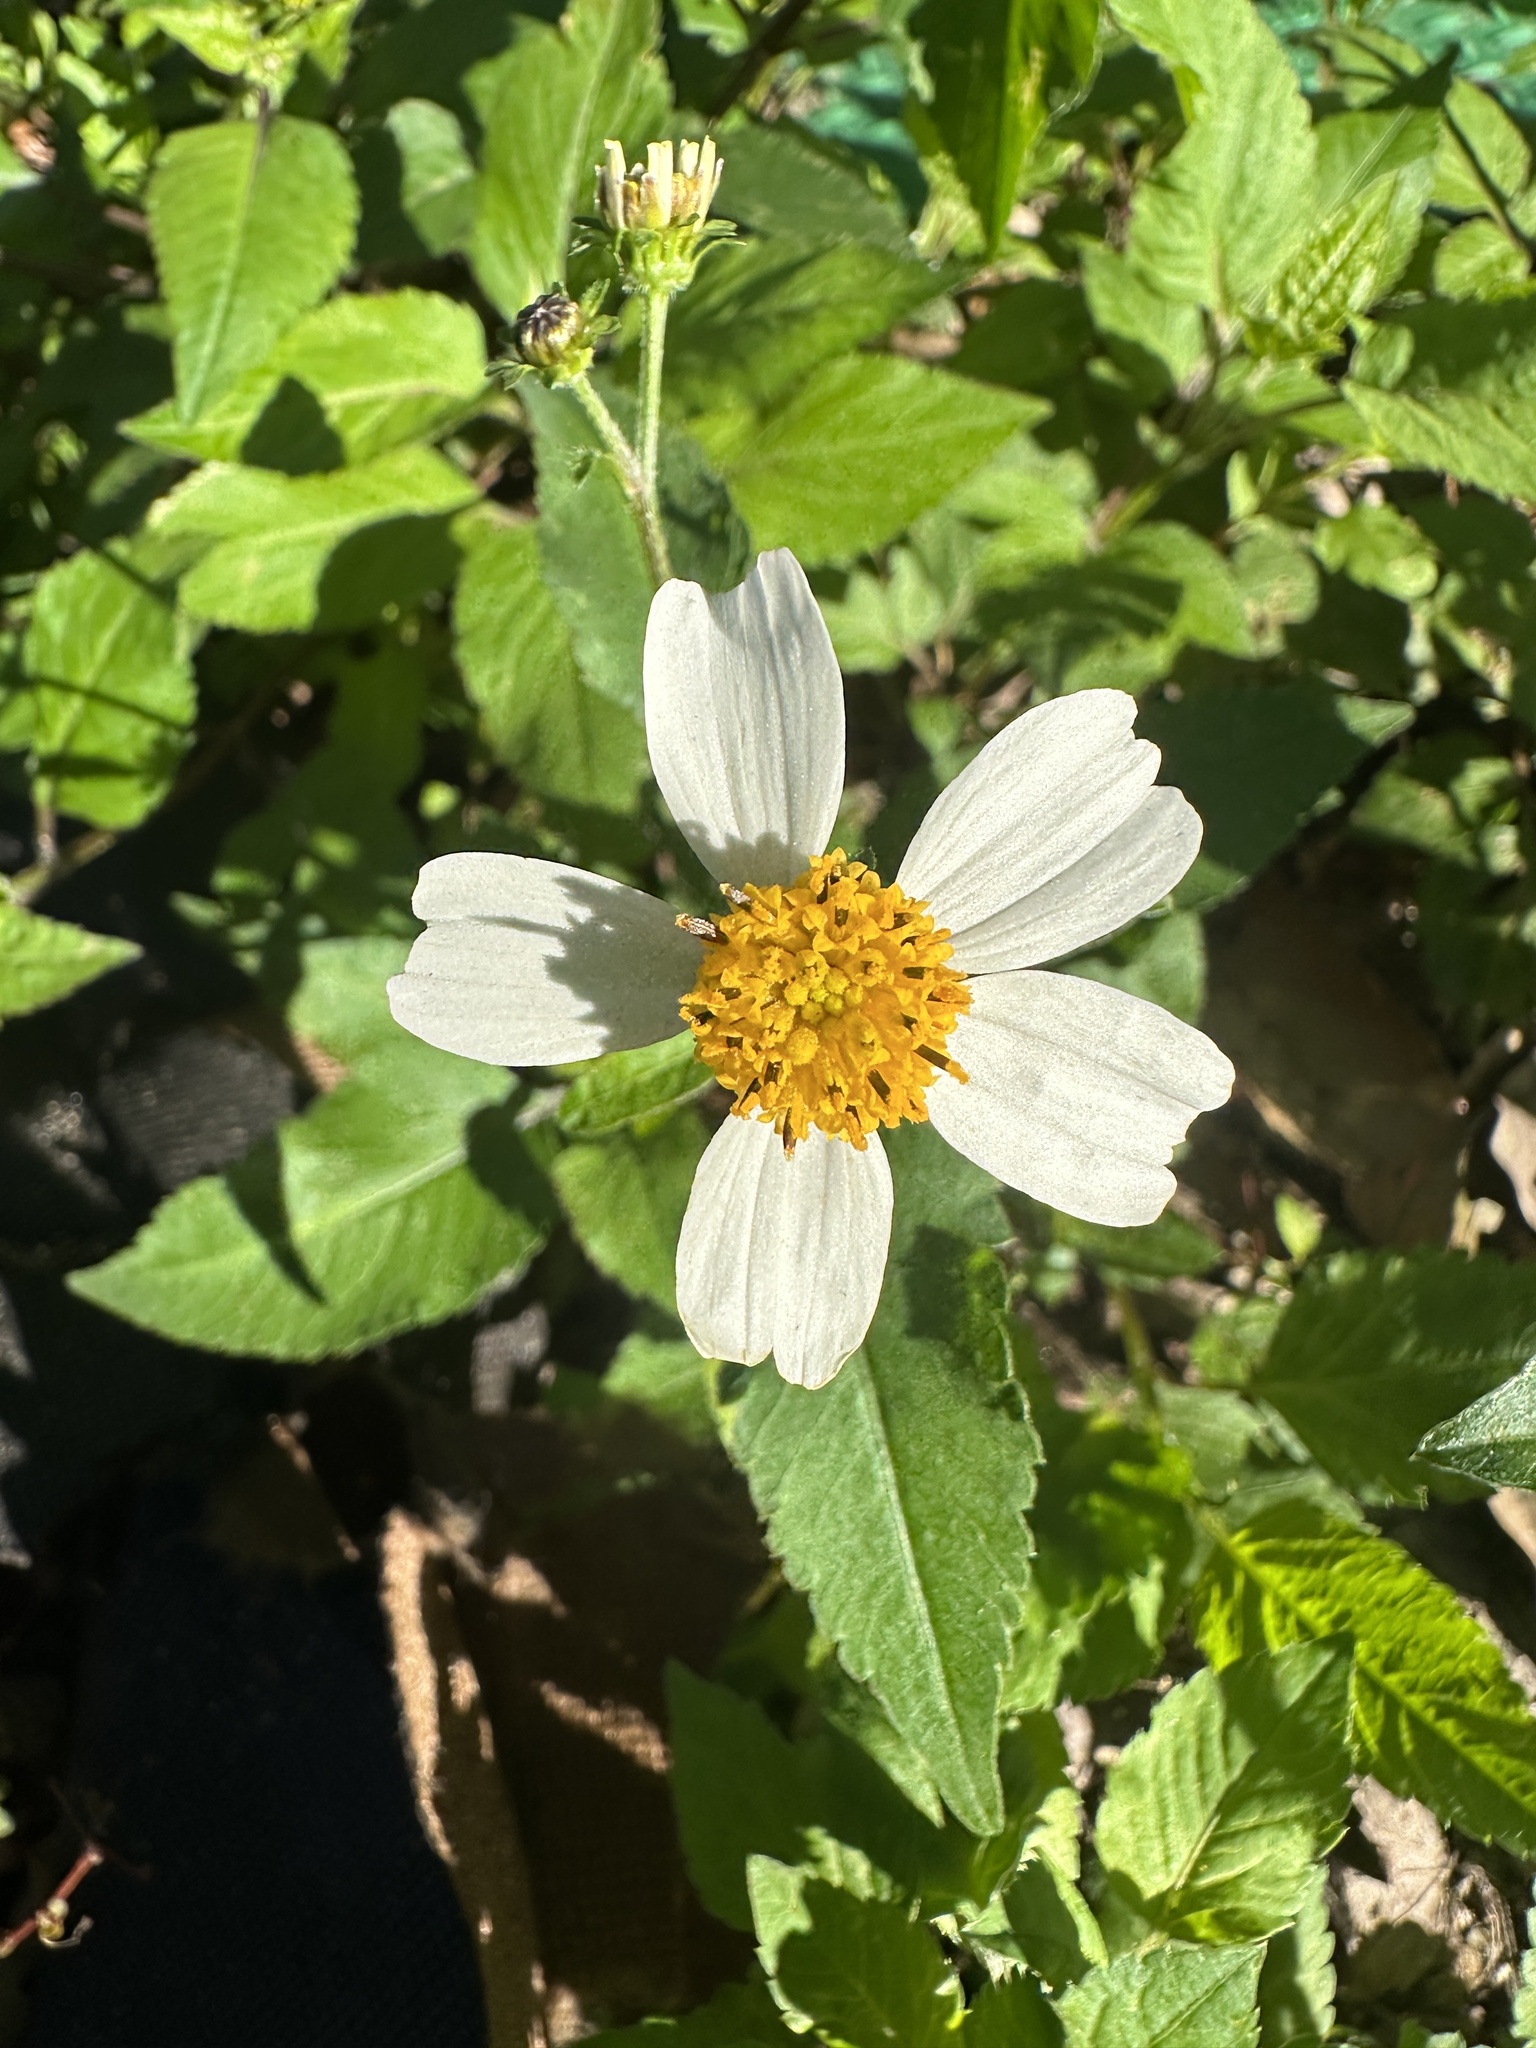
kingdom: Plantae
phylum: Tracheophyta
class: Magnoliopsida
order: Asterales
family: Asteraceae
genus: Bidens
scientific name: Bidens alba
